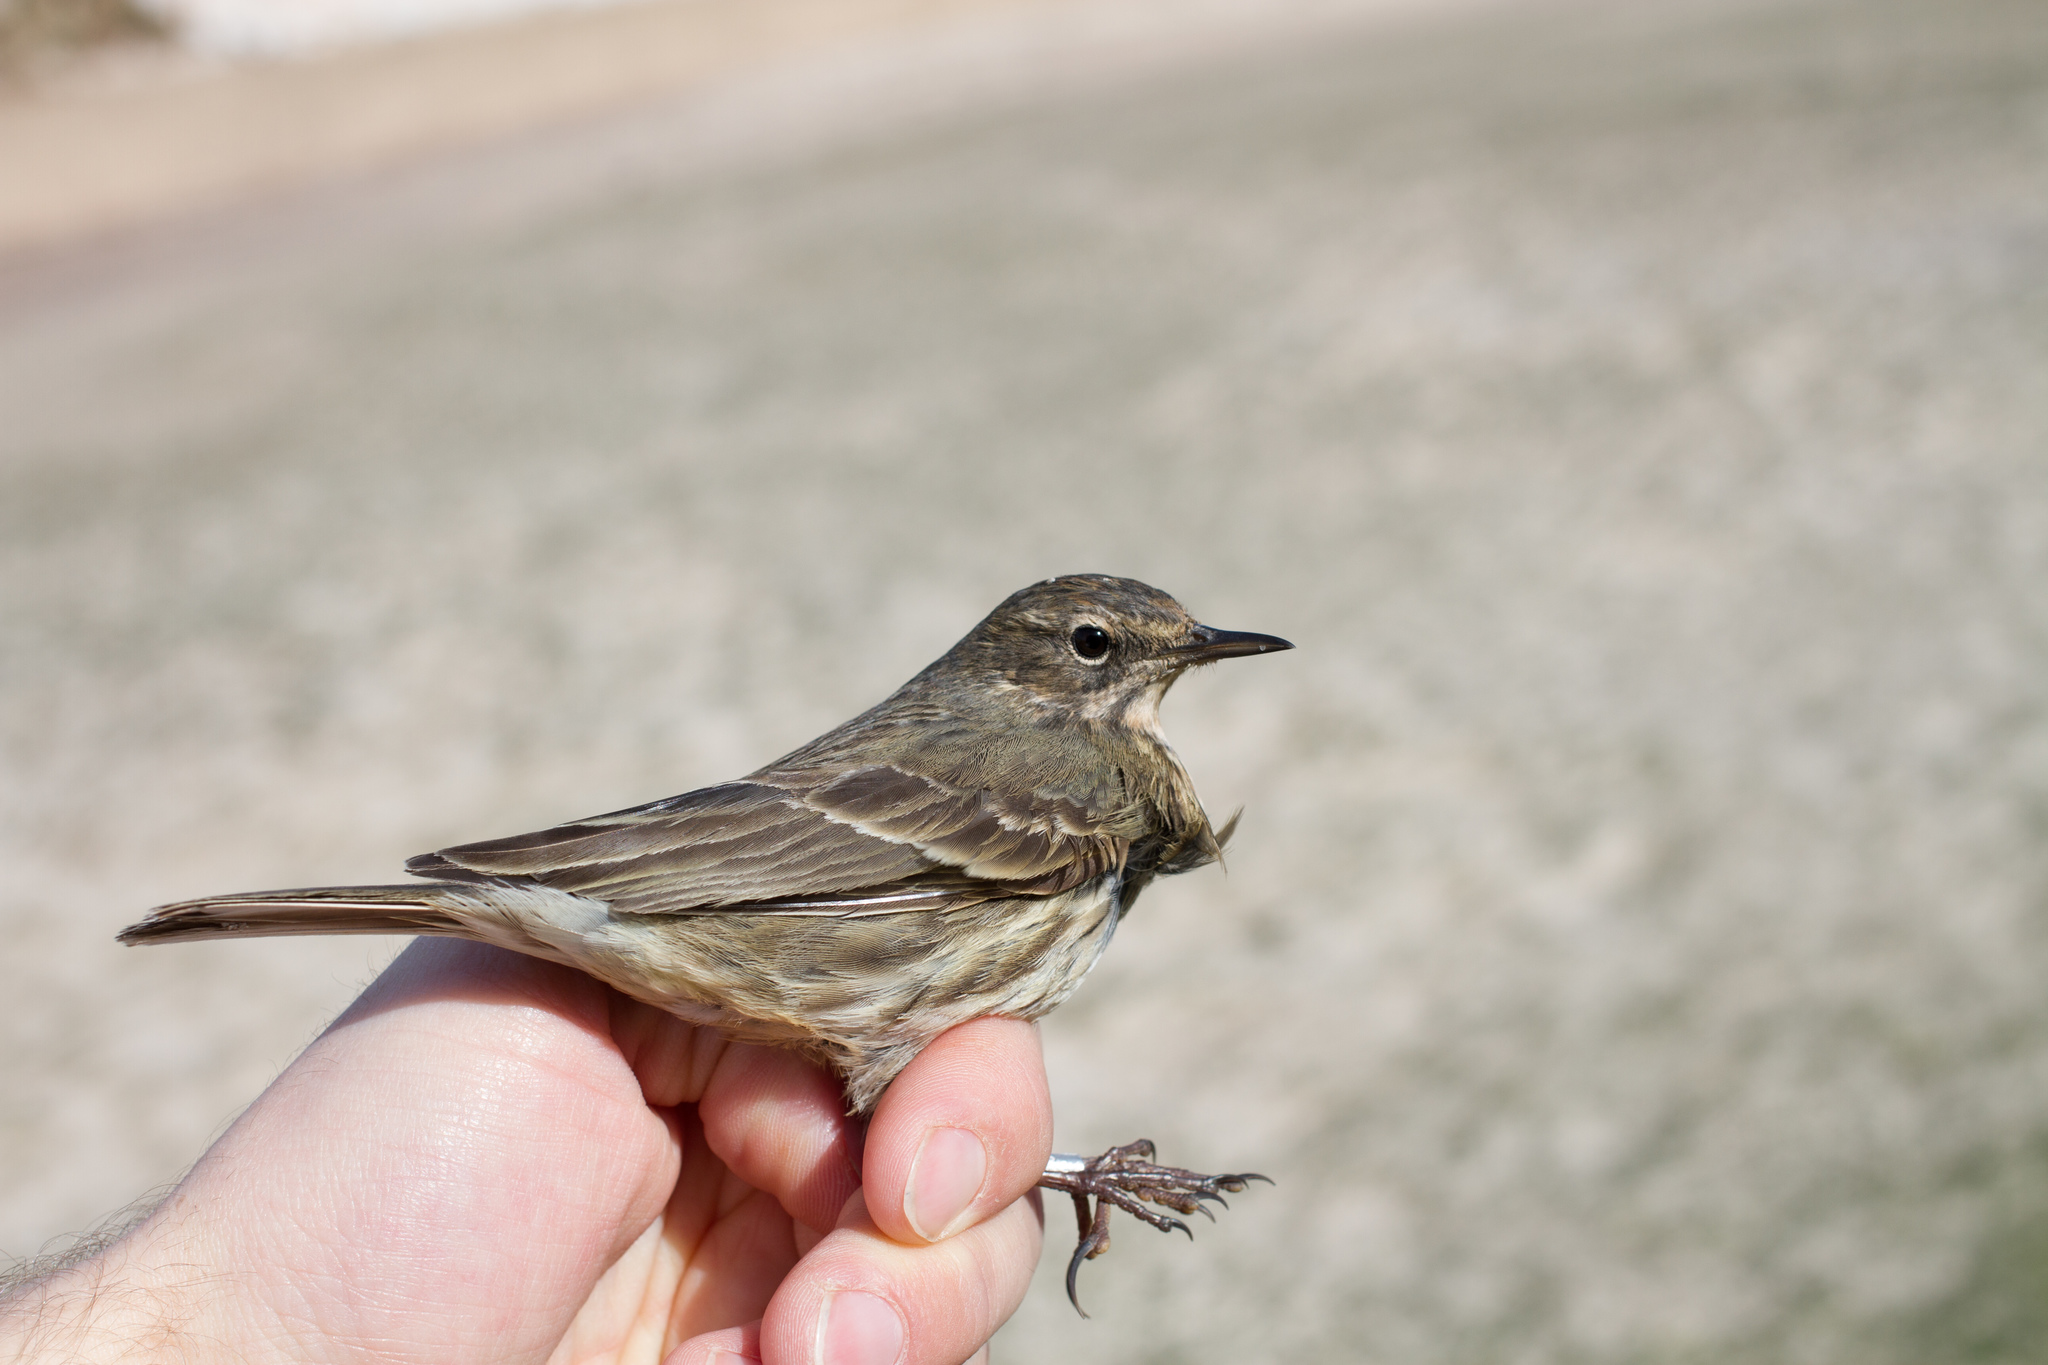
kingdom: Animalia
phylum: Chordata
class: Aves
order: Passeriformes
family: Motacillidae
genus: Anthus
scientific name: Anthus petrosus
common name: Eurasian rock pipit
